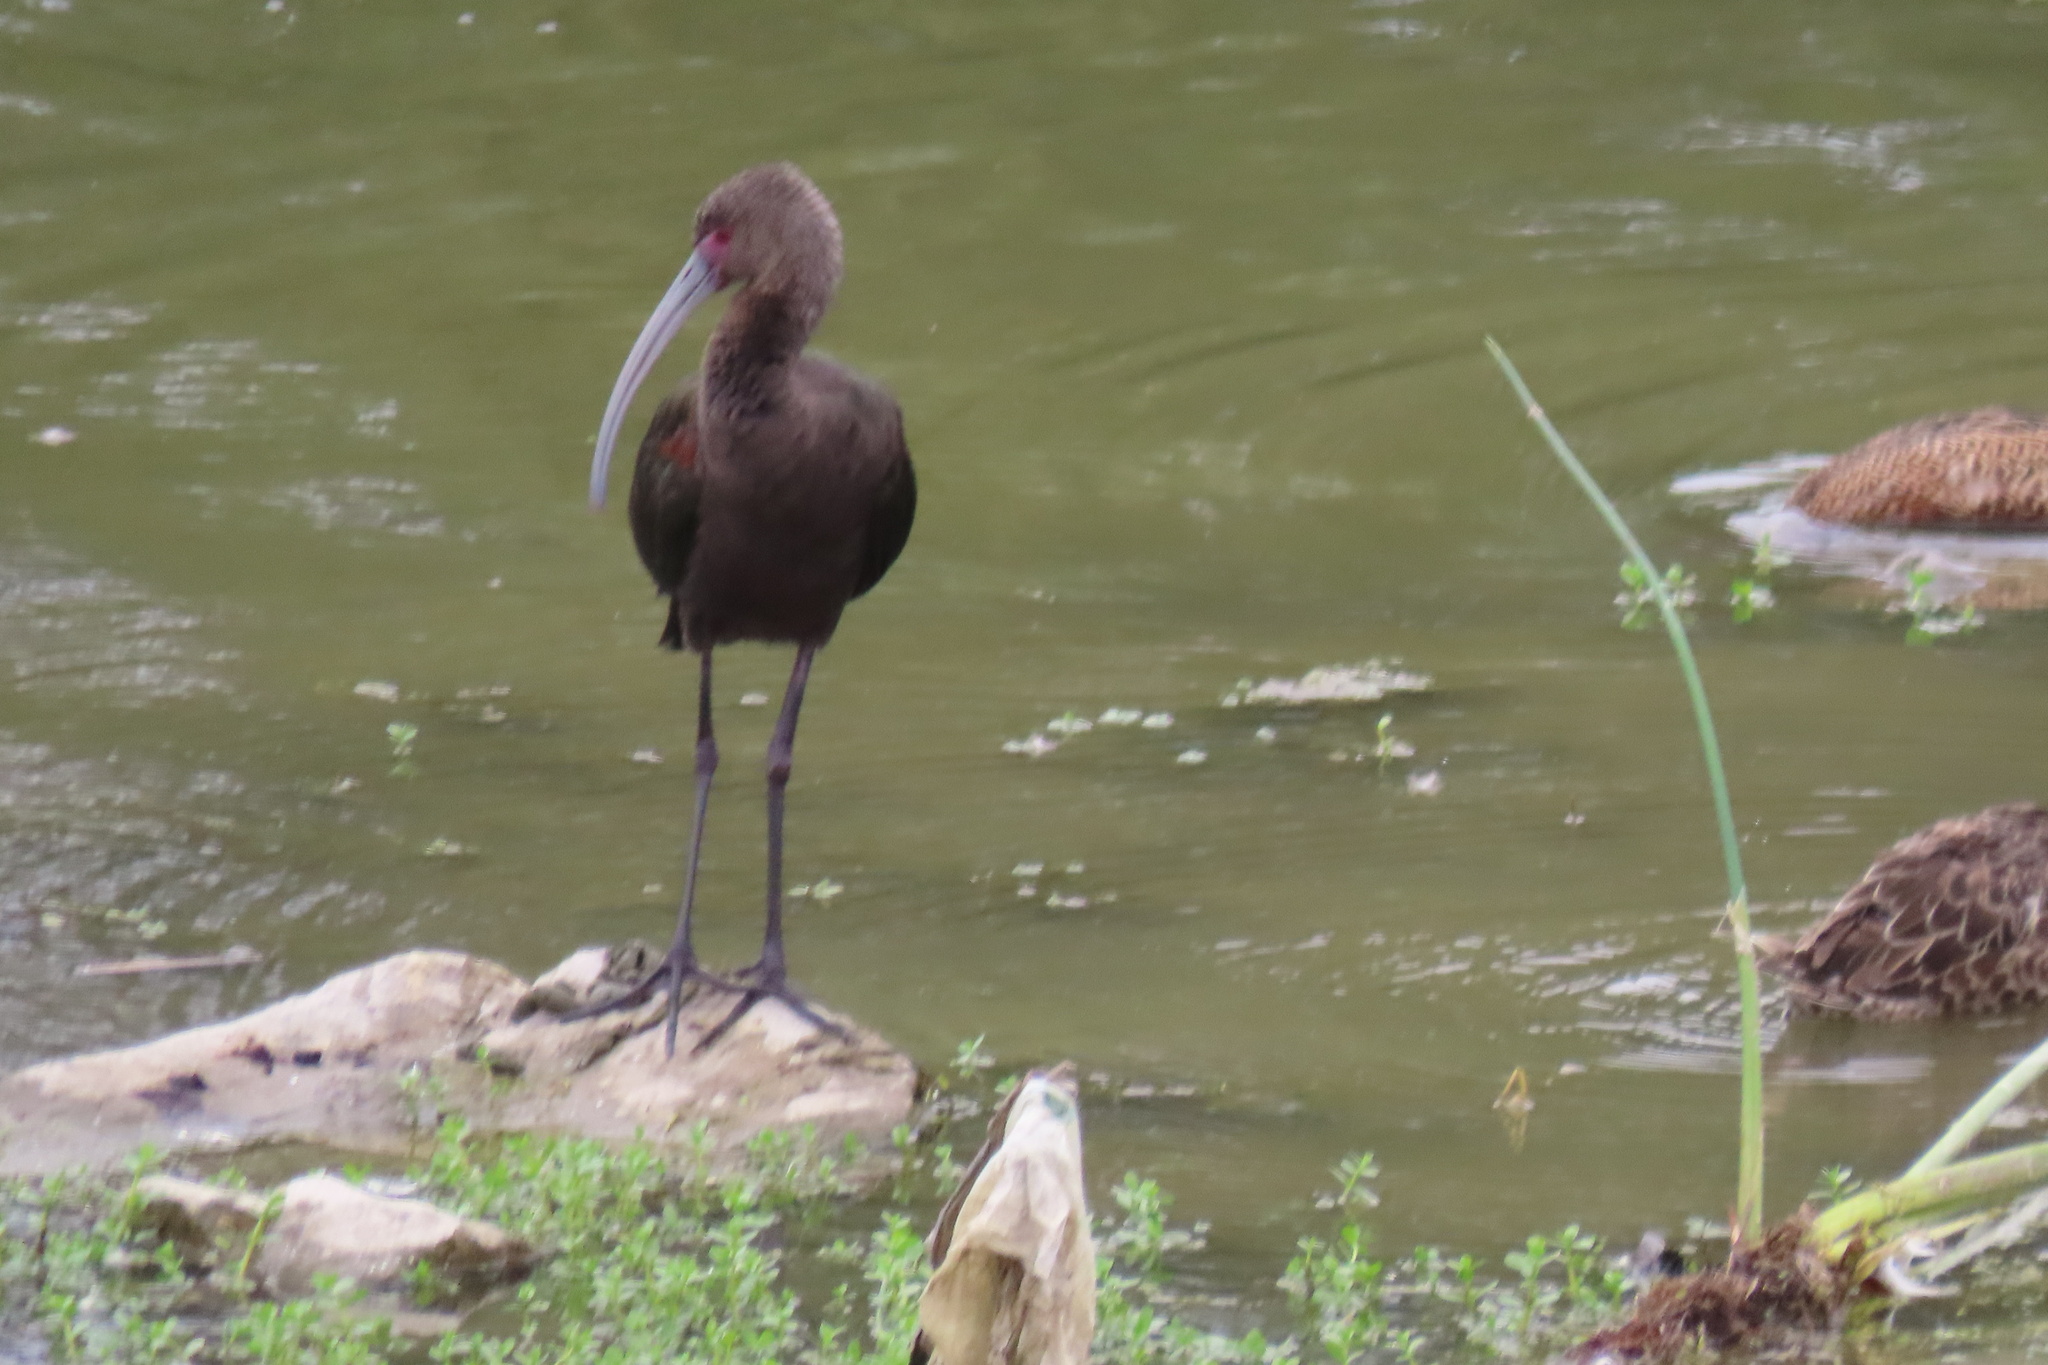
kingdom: Animalia
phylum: Chordata
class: Aves
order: Pelecaniformes
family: Threskiornithidae
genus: Plegadis
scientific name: Plegadis chihi
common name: White-faced ibis
